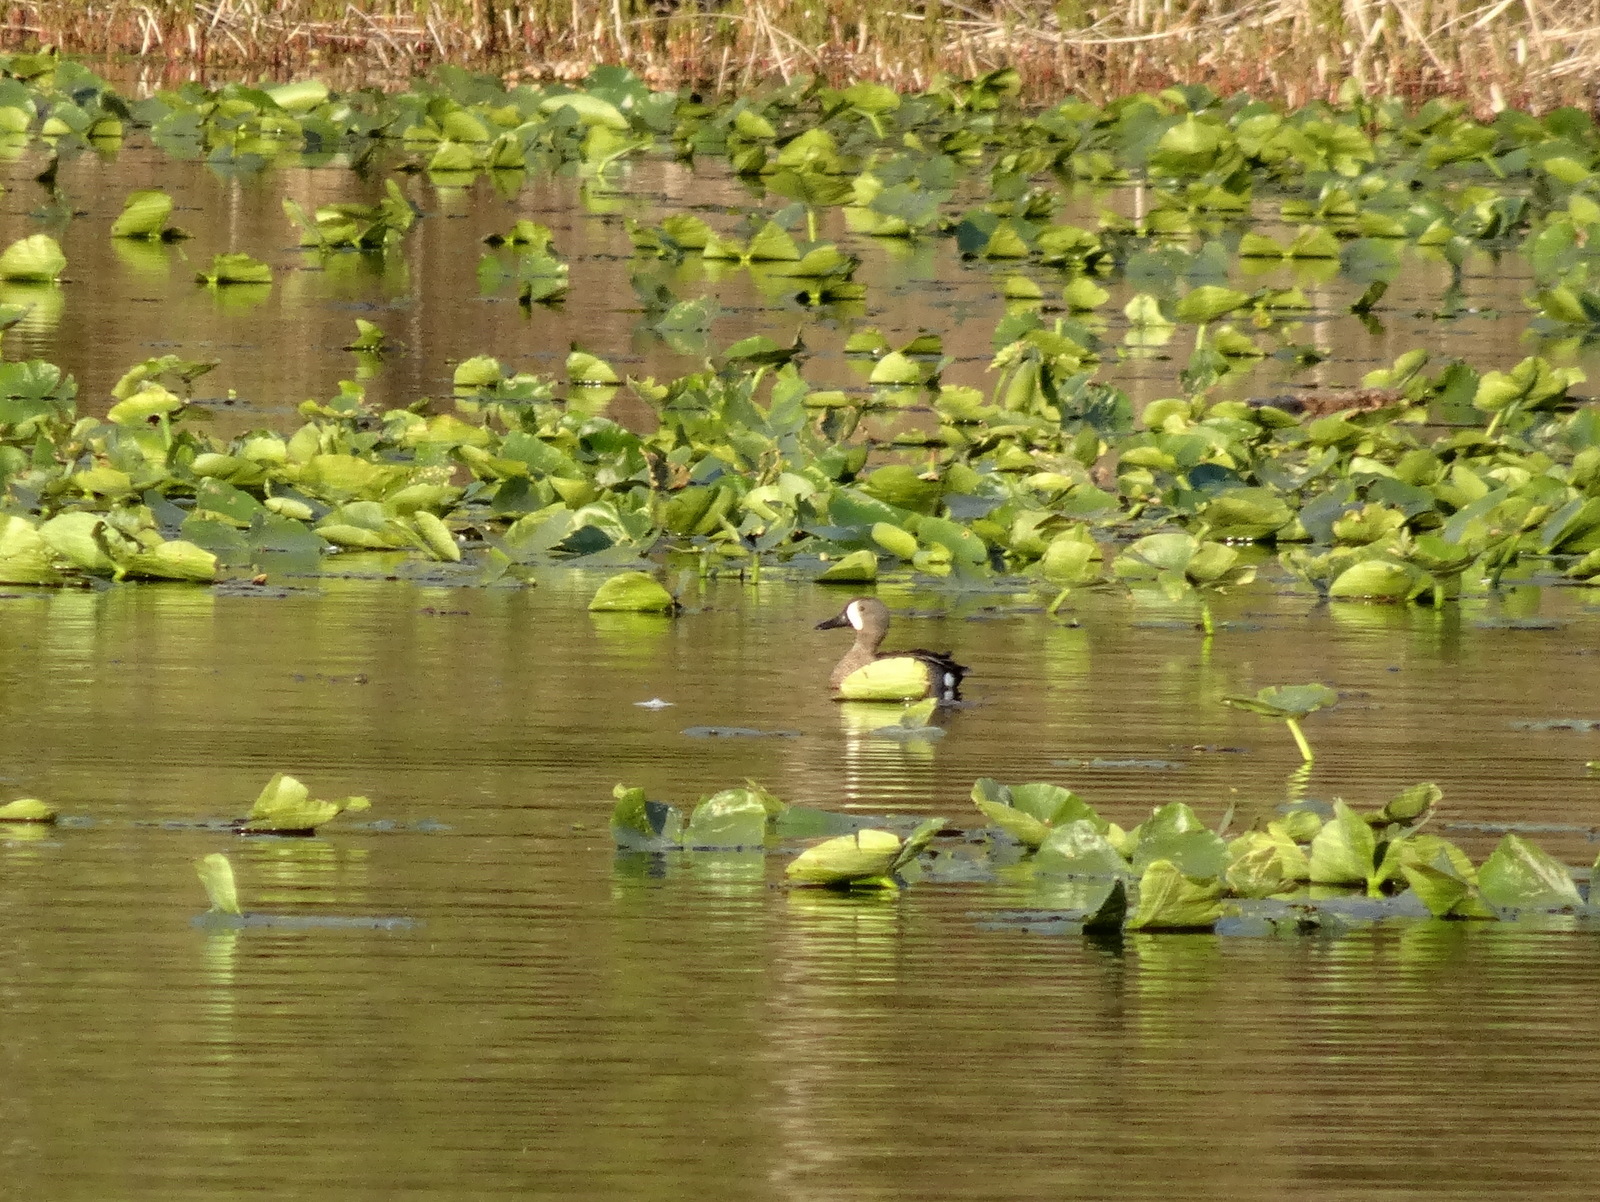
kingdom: Animalia
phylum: Chordata
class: Aves
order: Anseriformes
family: Anatidae
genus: Spatula
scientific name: Spatula discors
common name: Blue-winged teal
